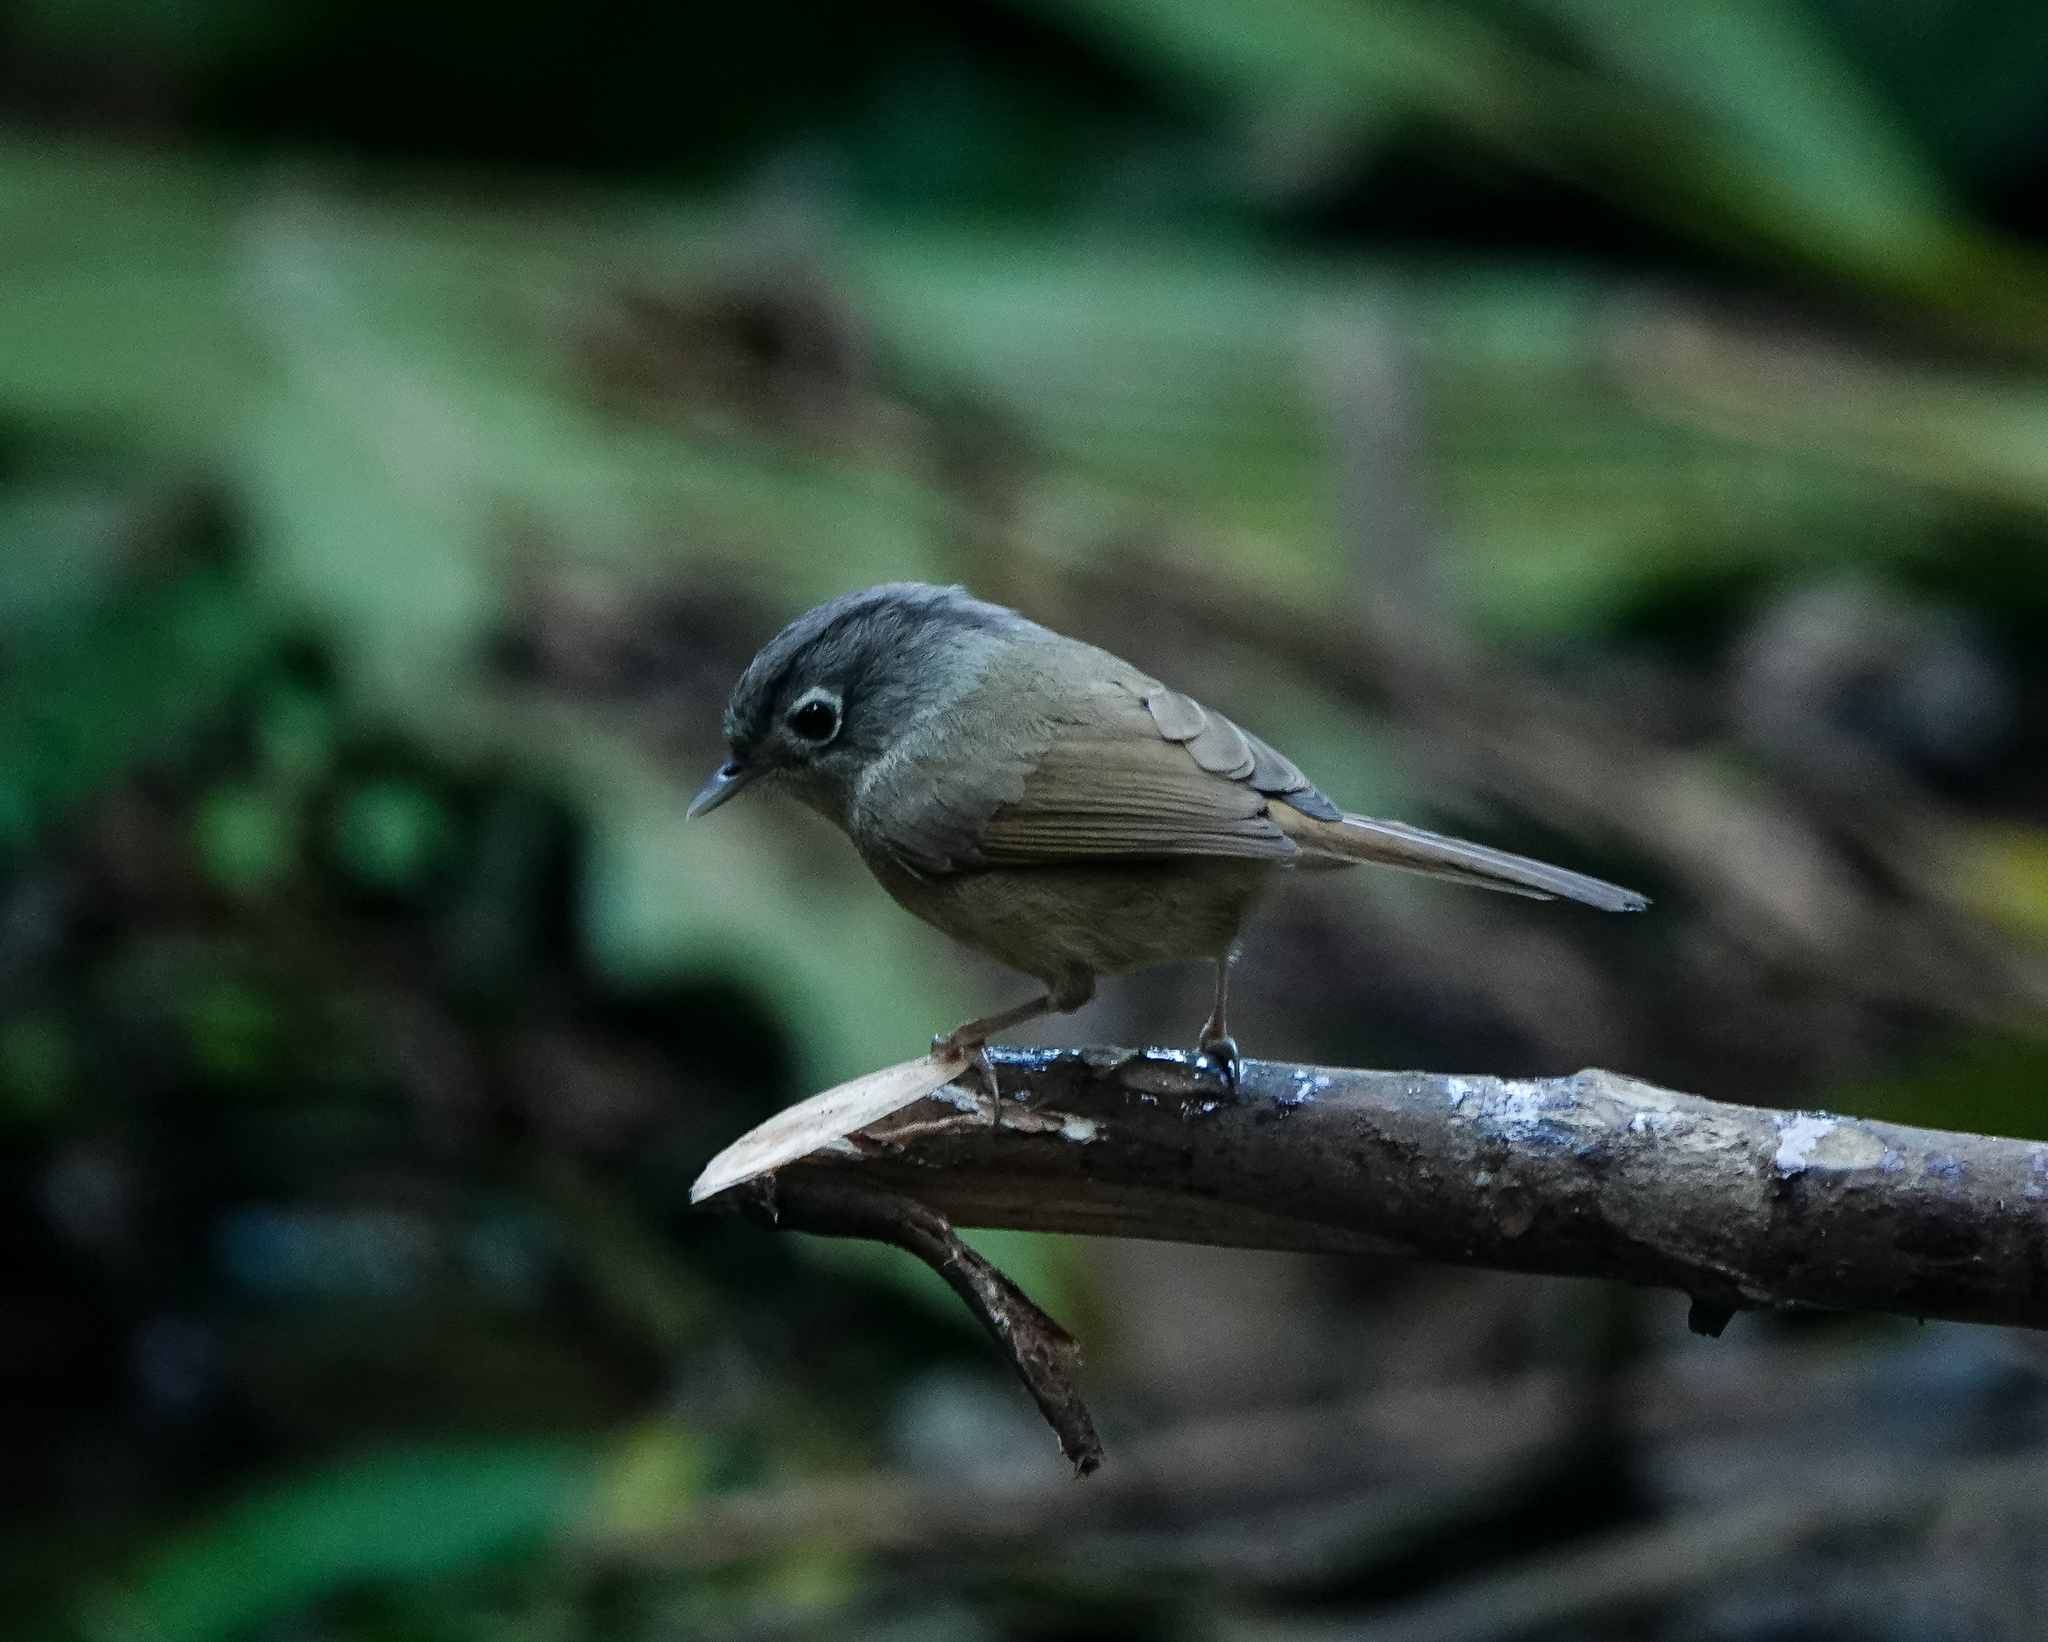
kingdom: Animalia
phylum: Chordata
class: Aves
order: Passeriformes
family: Pellorneidae
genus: Alcippe
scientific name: Alcippe nipalensis
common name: Nepal fulvetta
